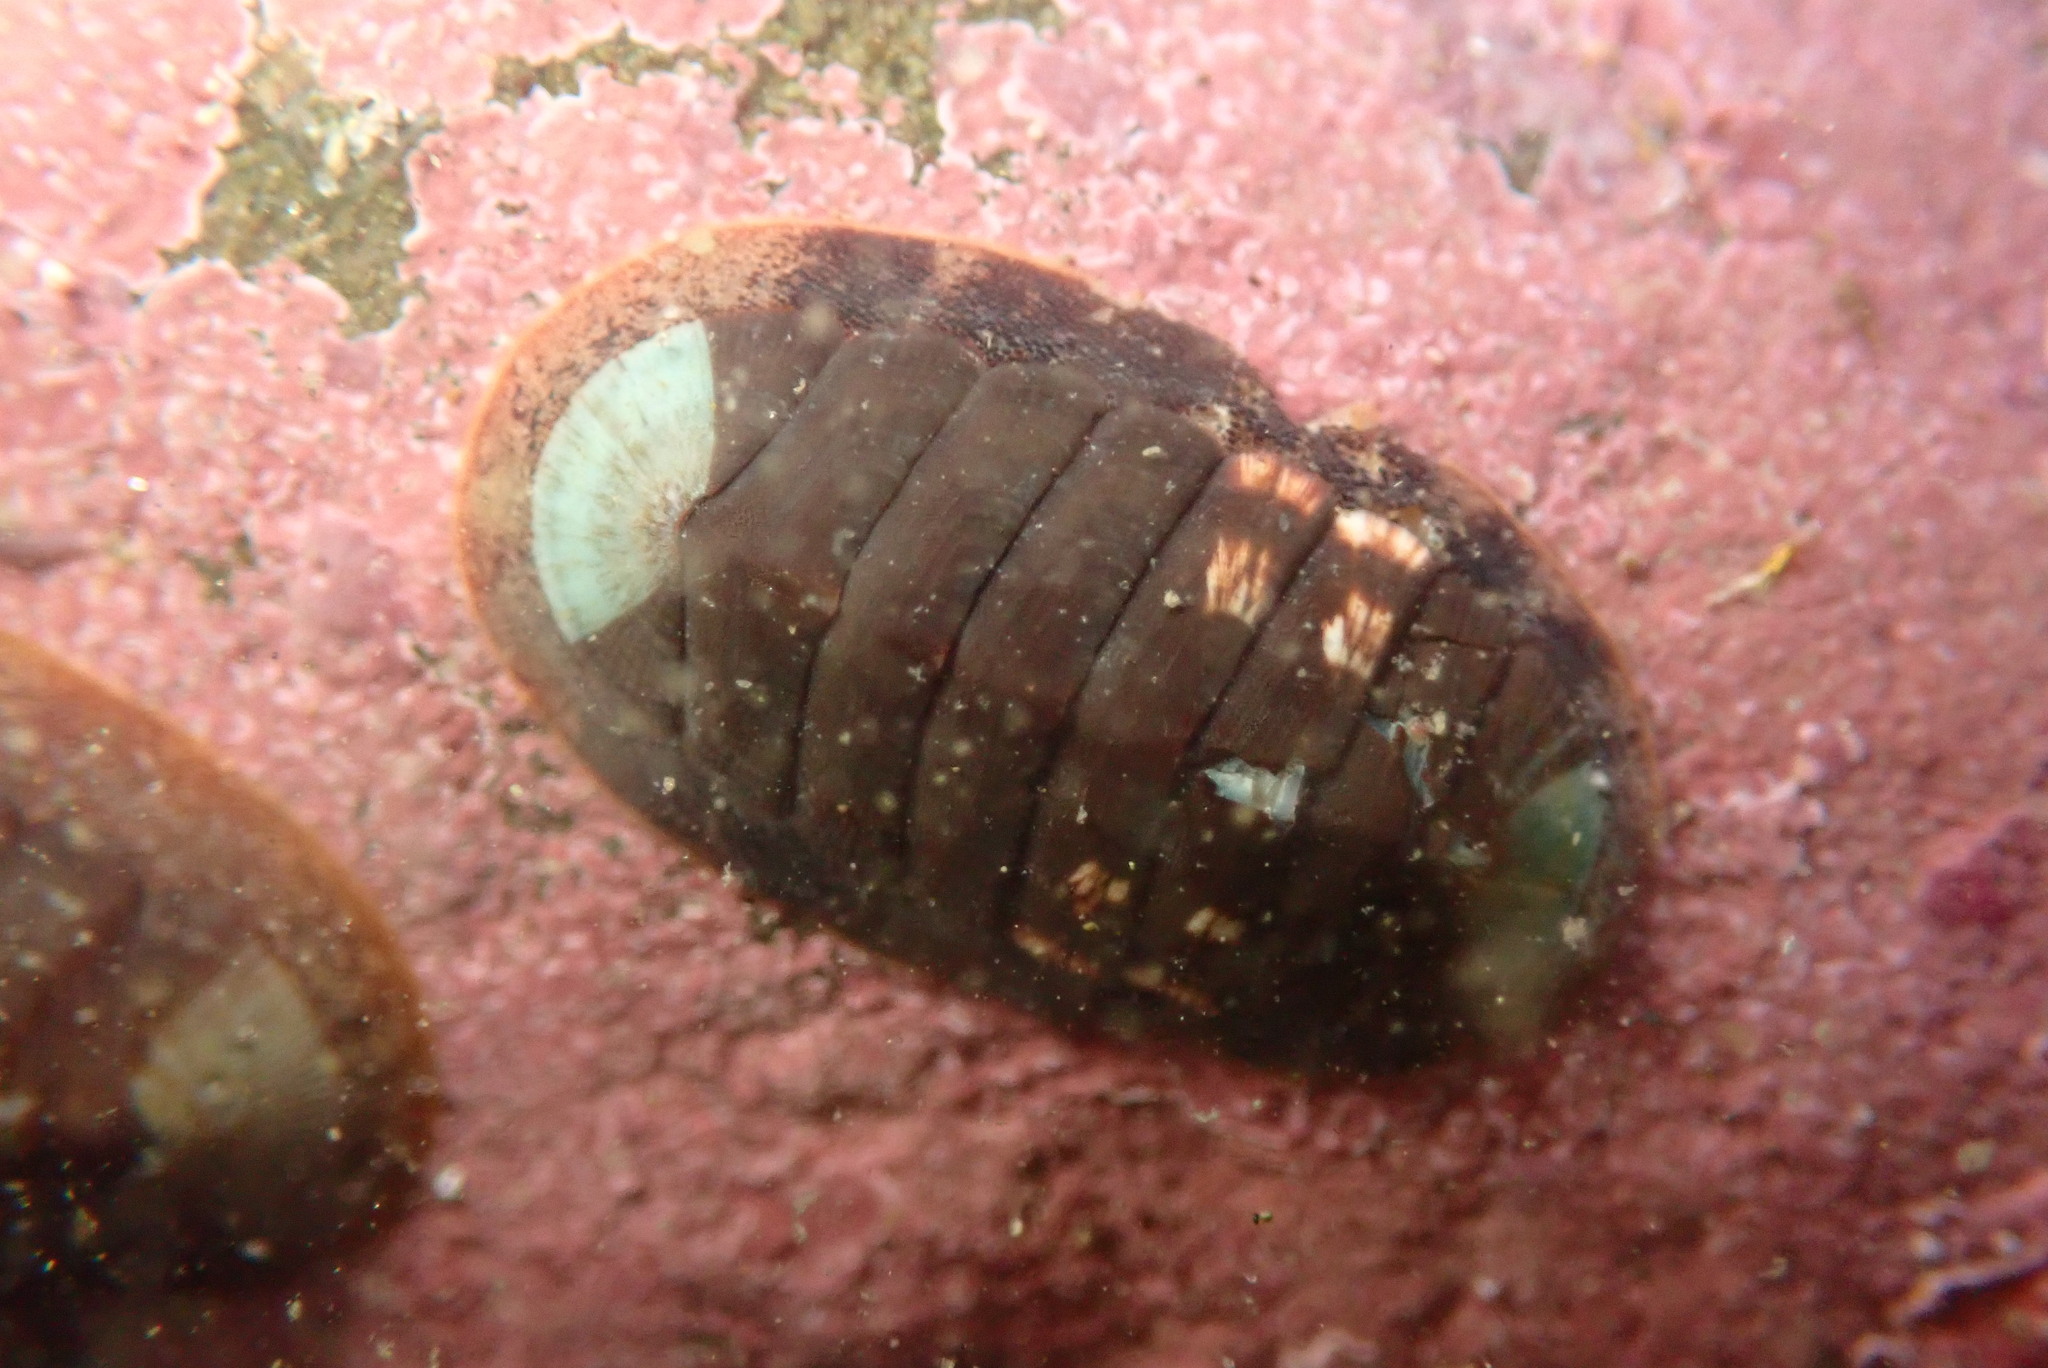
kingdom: Animalia
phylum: Mollusca
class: Polyplacophora
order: Chitonida
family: Ischnochitonidae
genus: Lepidozona
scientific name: Lepidozona radians
